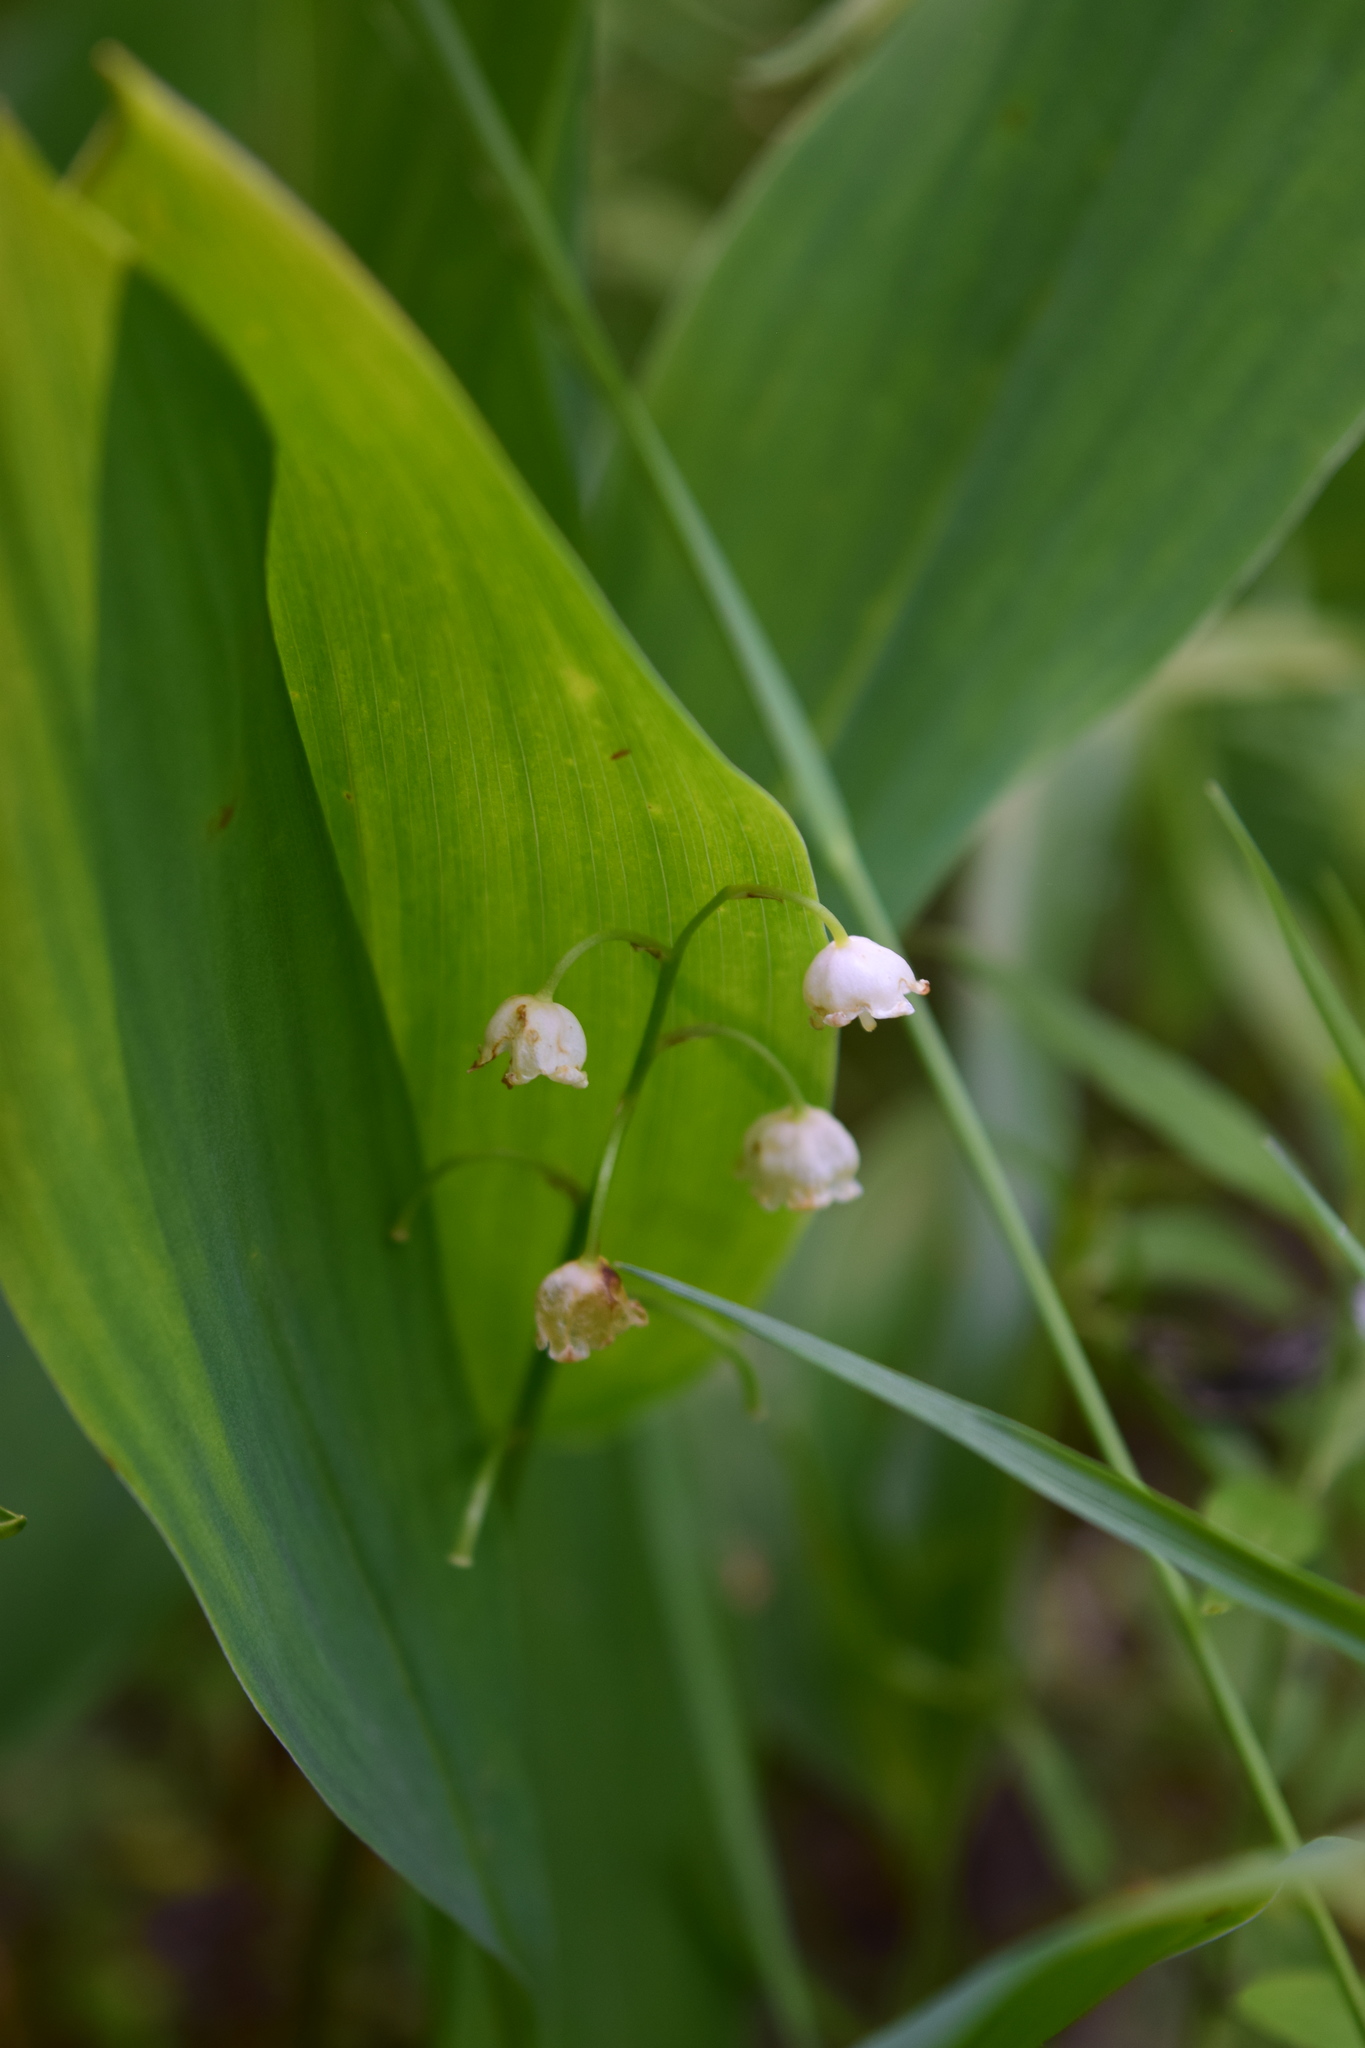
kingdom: Plantae
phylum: Tracheophyta
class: Liliopsida
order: Asparagales
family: Asparagaceae
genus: Convallaria
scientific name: Convallaria majalis
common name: Lily-of-the-valley
